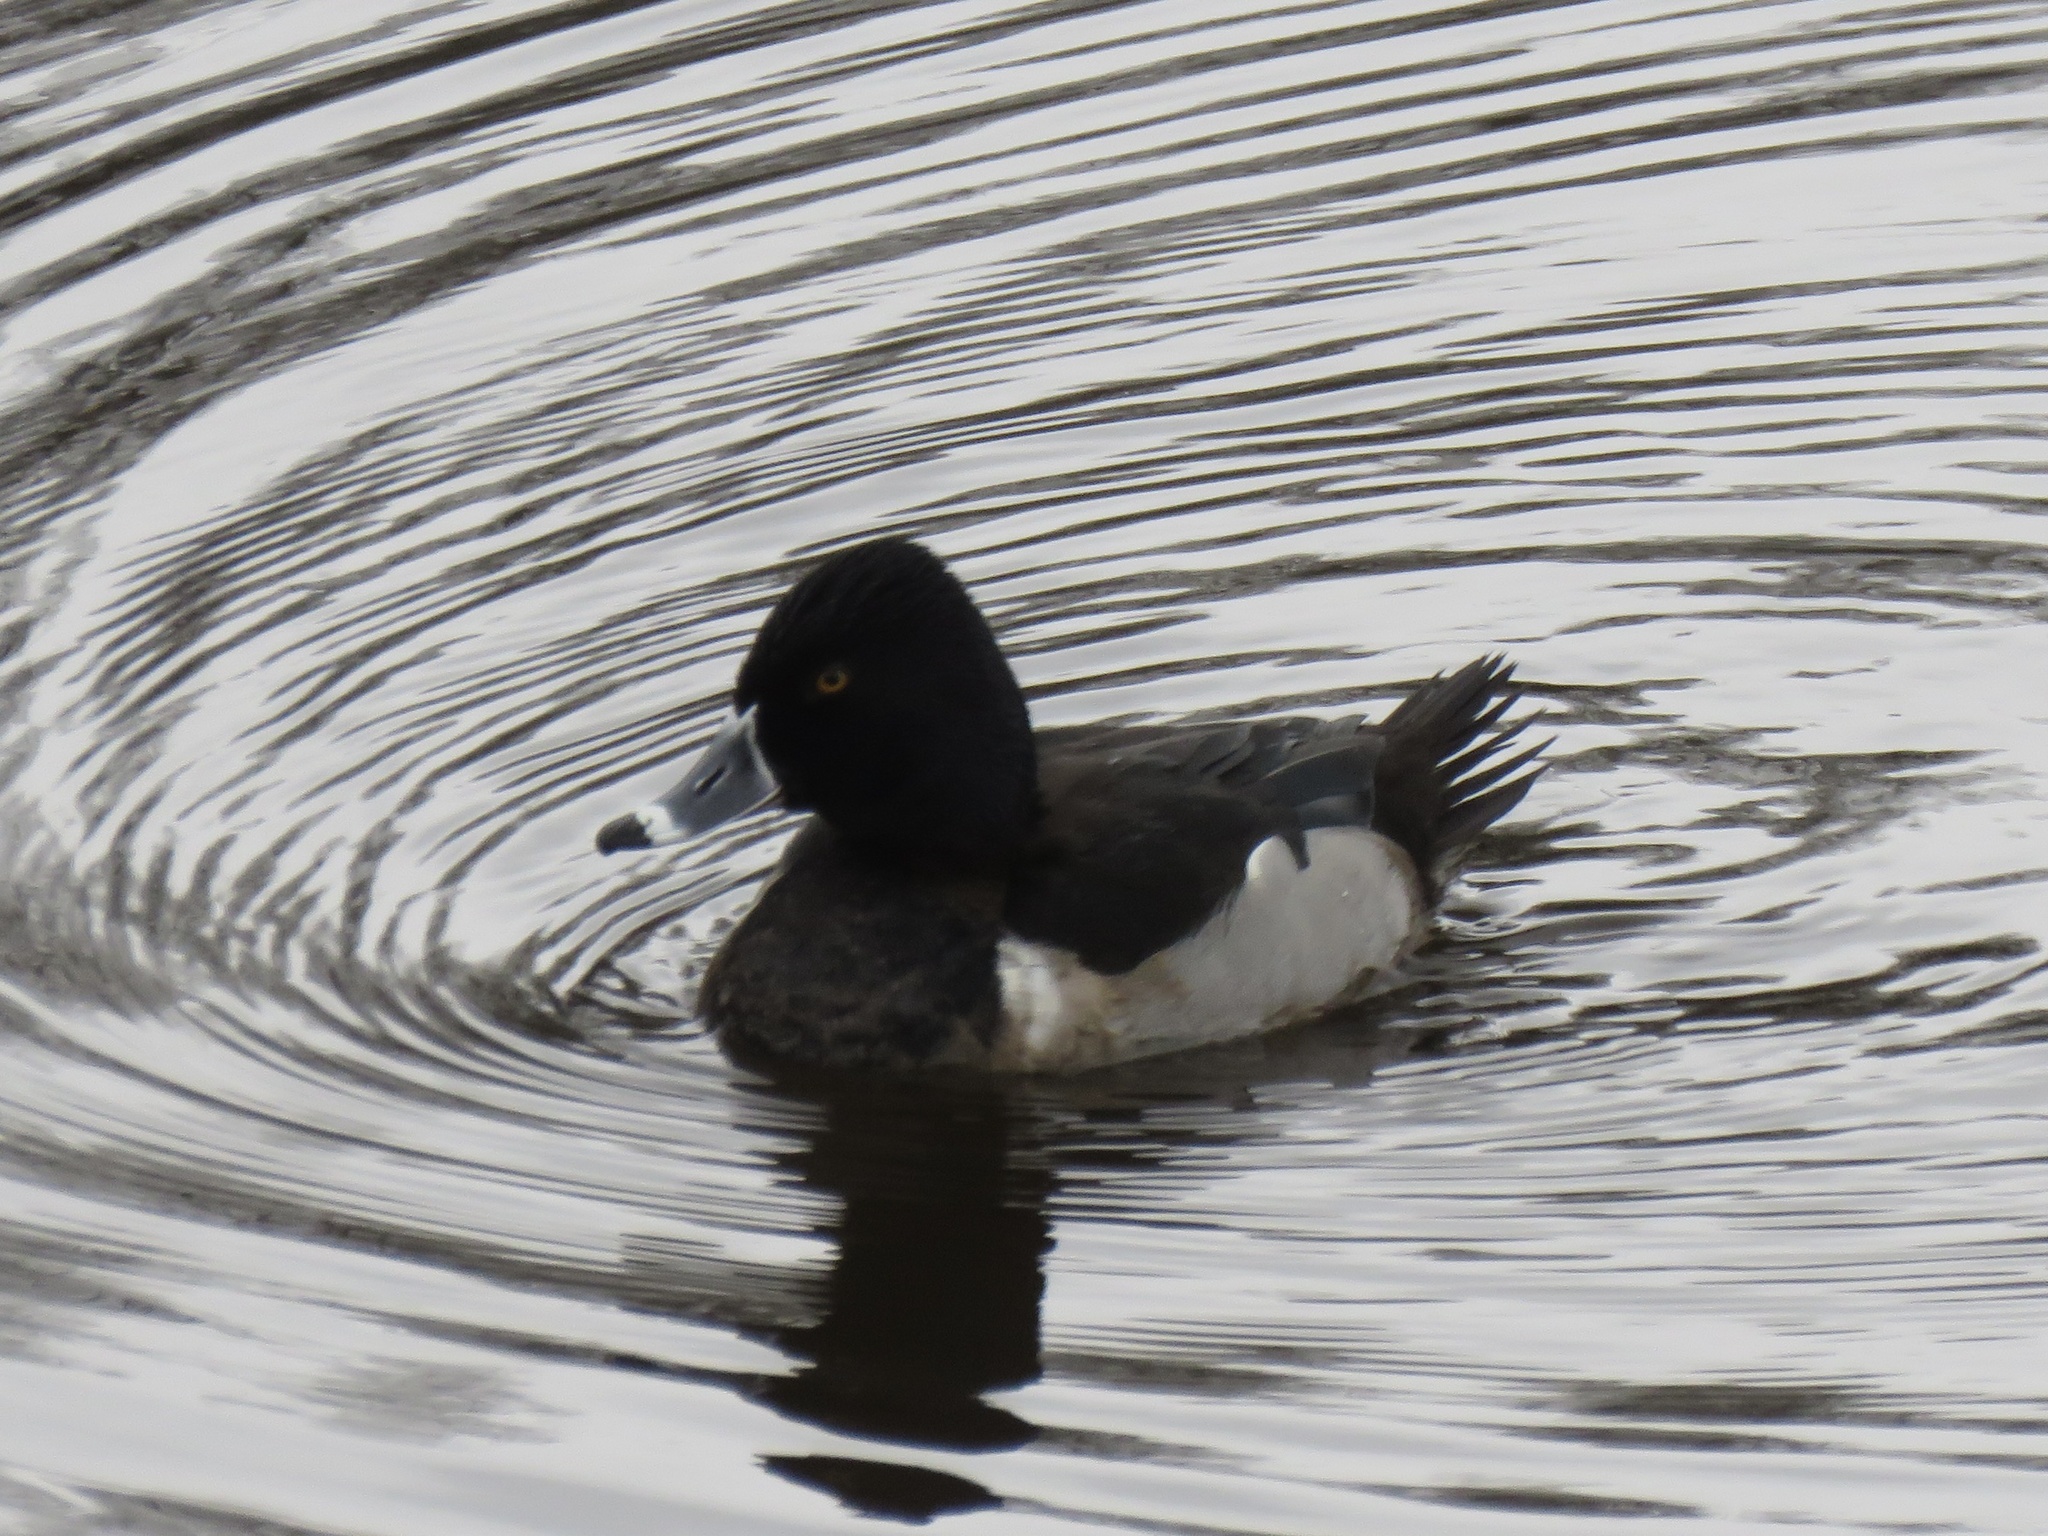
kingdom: Animalia
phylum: Chordata
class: Aves
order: Anseriformes
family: Anatidae
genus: Aythya
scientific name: Aythya collaris
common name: Ring-necked duck
